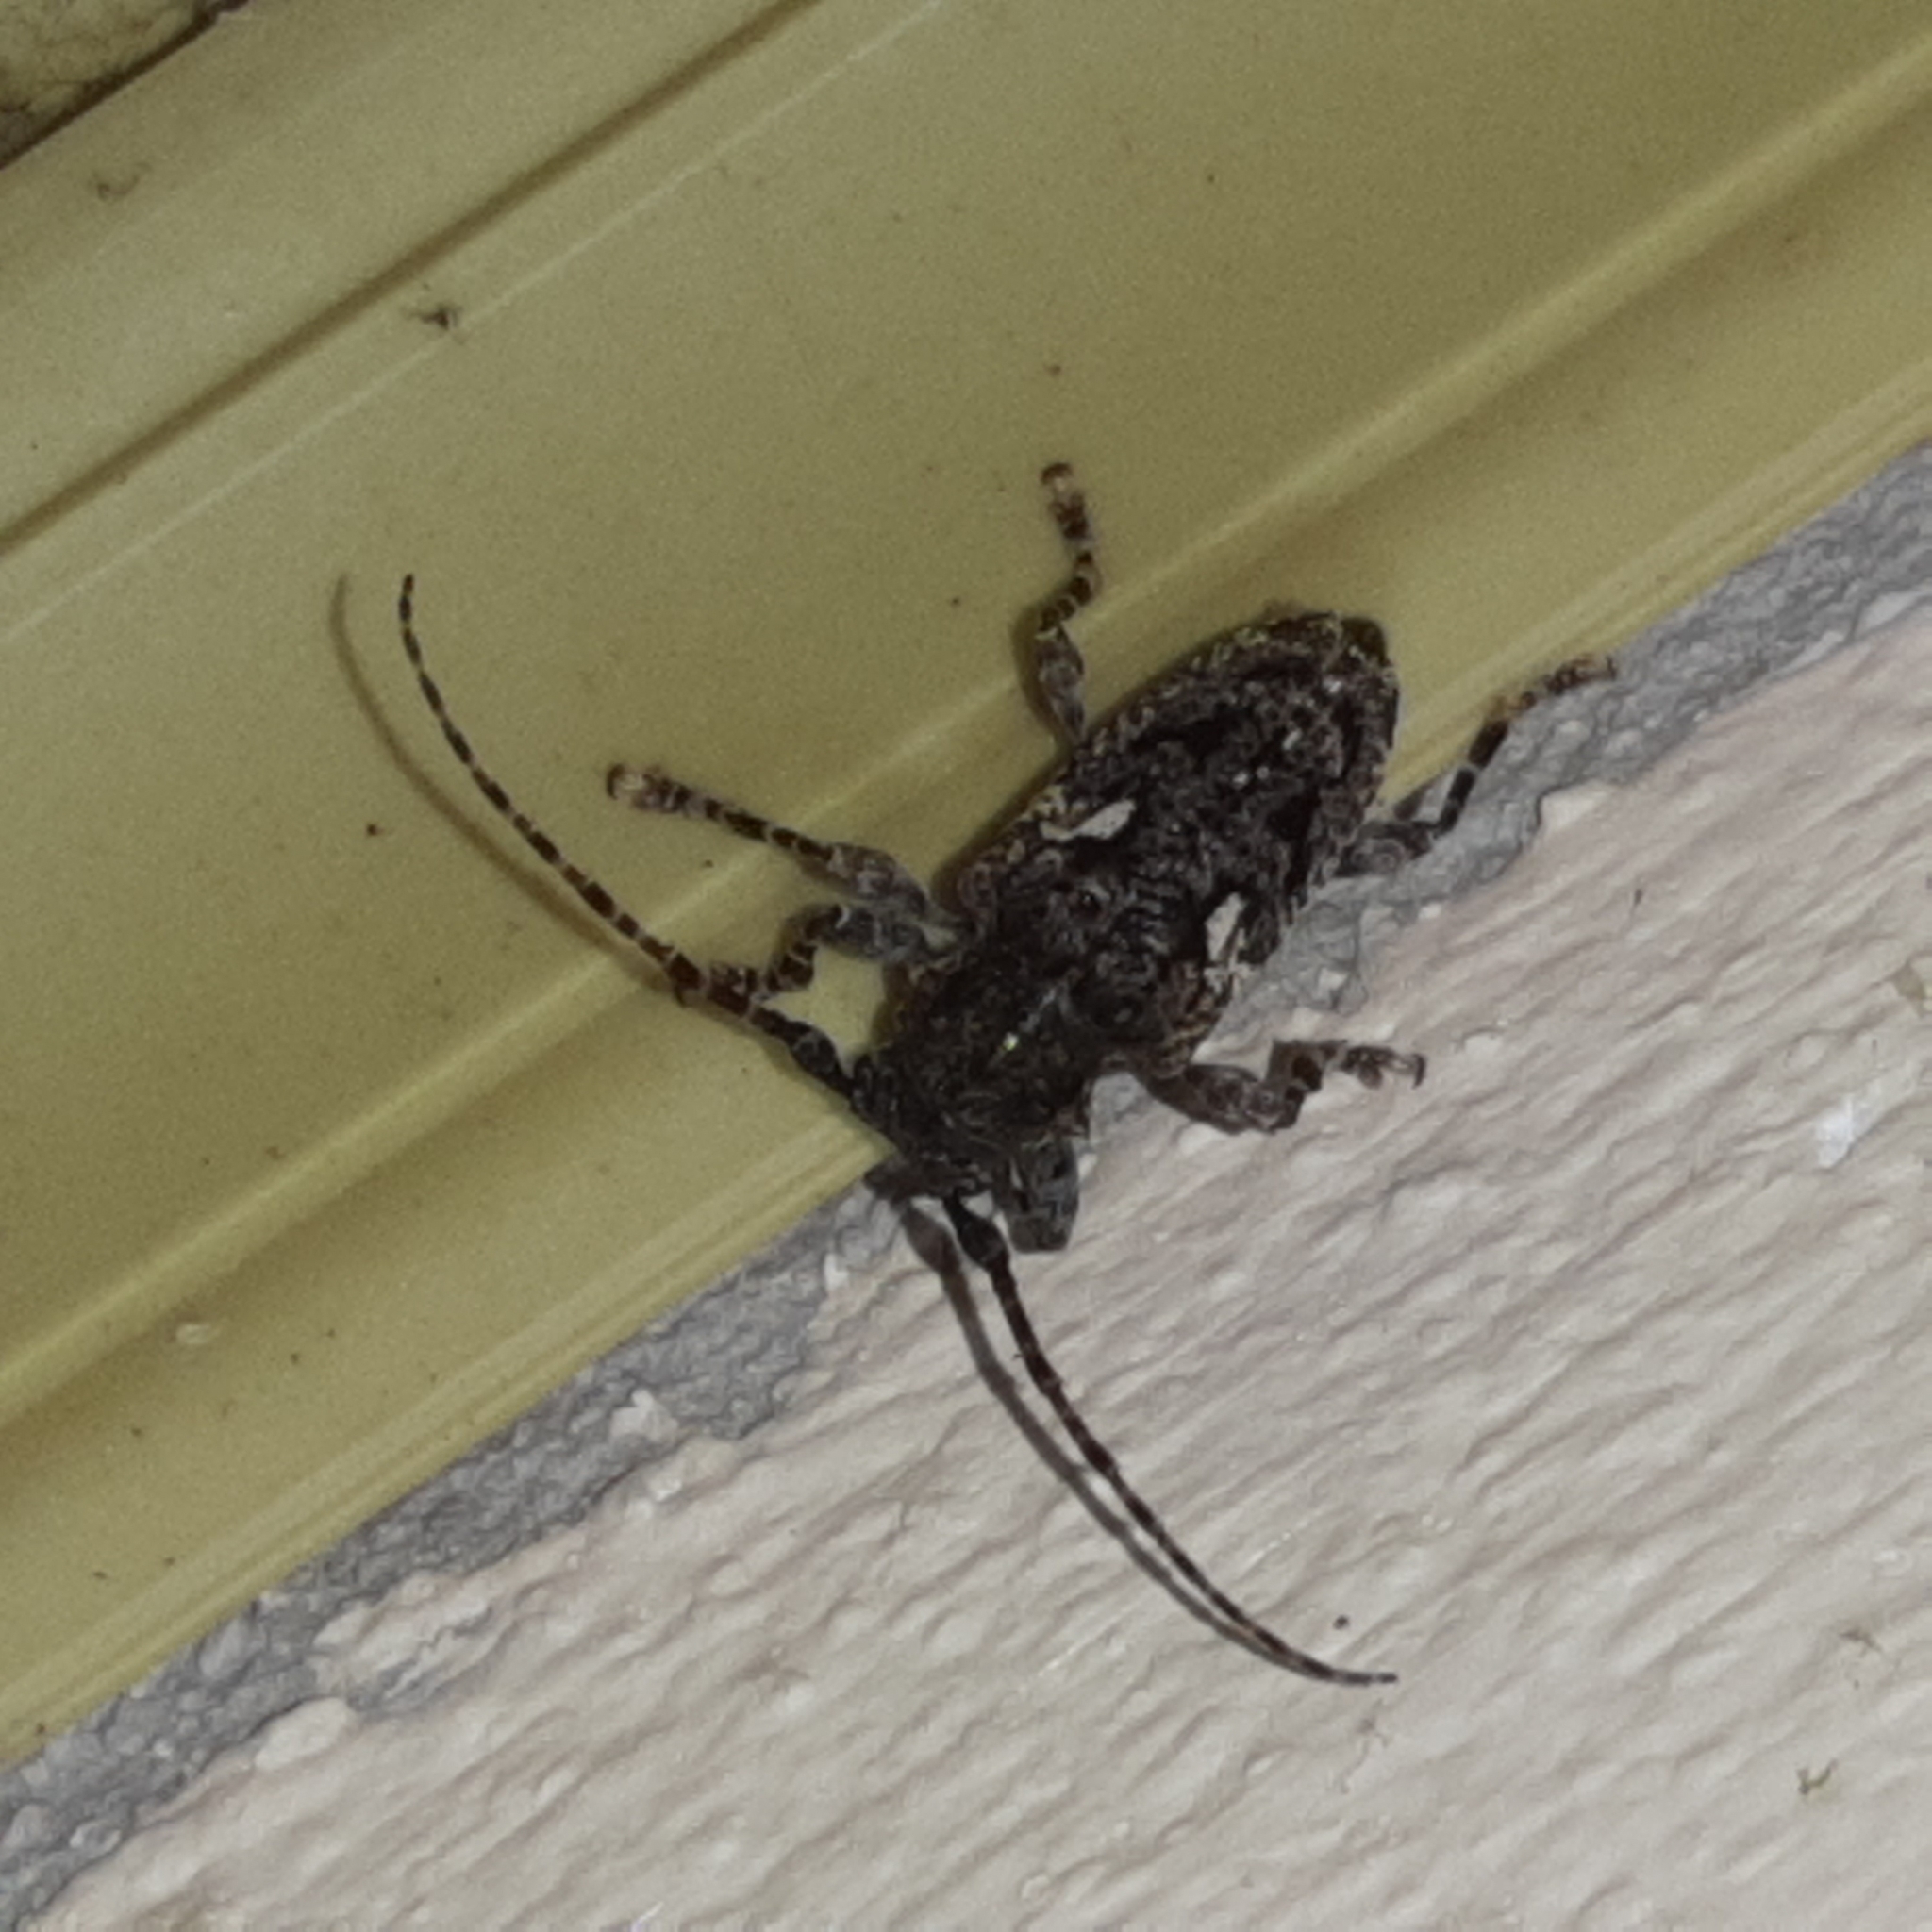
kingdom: Animalia
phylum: Arthropoda
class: Insecta
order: Coleoptera
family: Cerambycidae
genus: Psapharochrus
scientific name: Psapharochrus circumflexus
